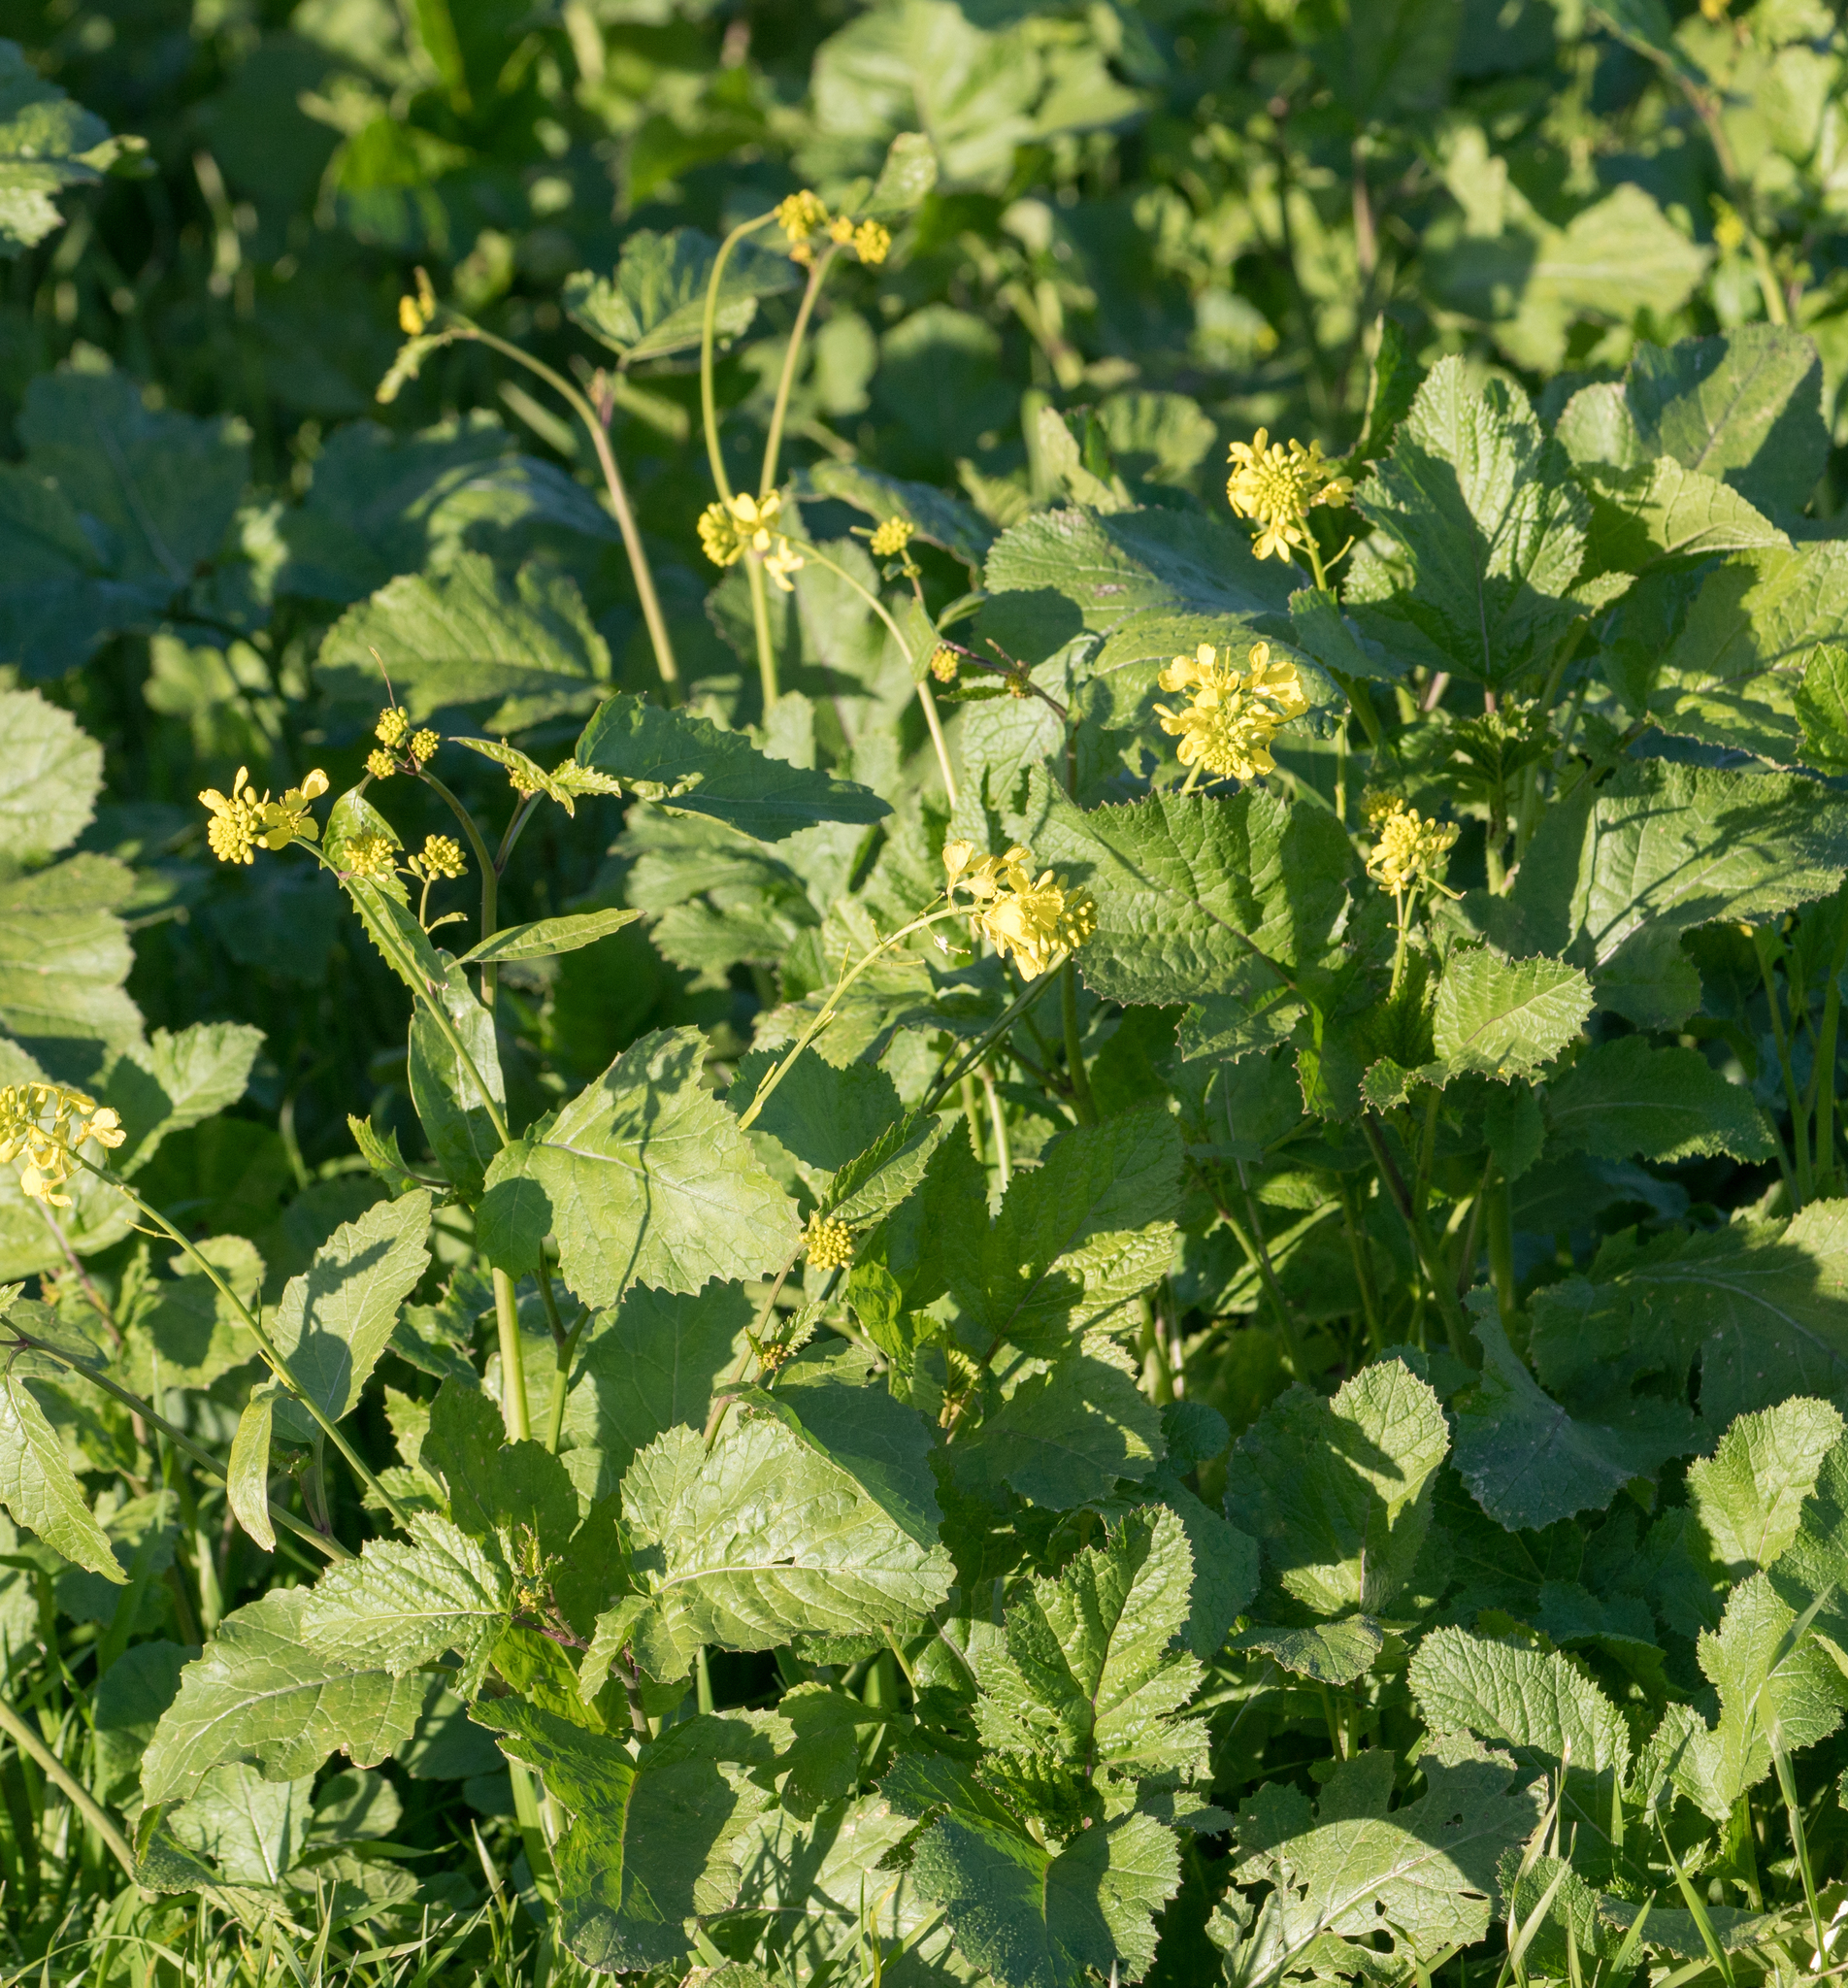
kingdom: Plantae
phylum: Tracheophyta
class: Magnoliopsida
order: Brassicales
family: Brassicaceae
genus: Brassica
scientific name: Brassica nigra
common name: Black mustard
